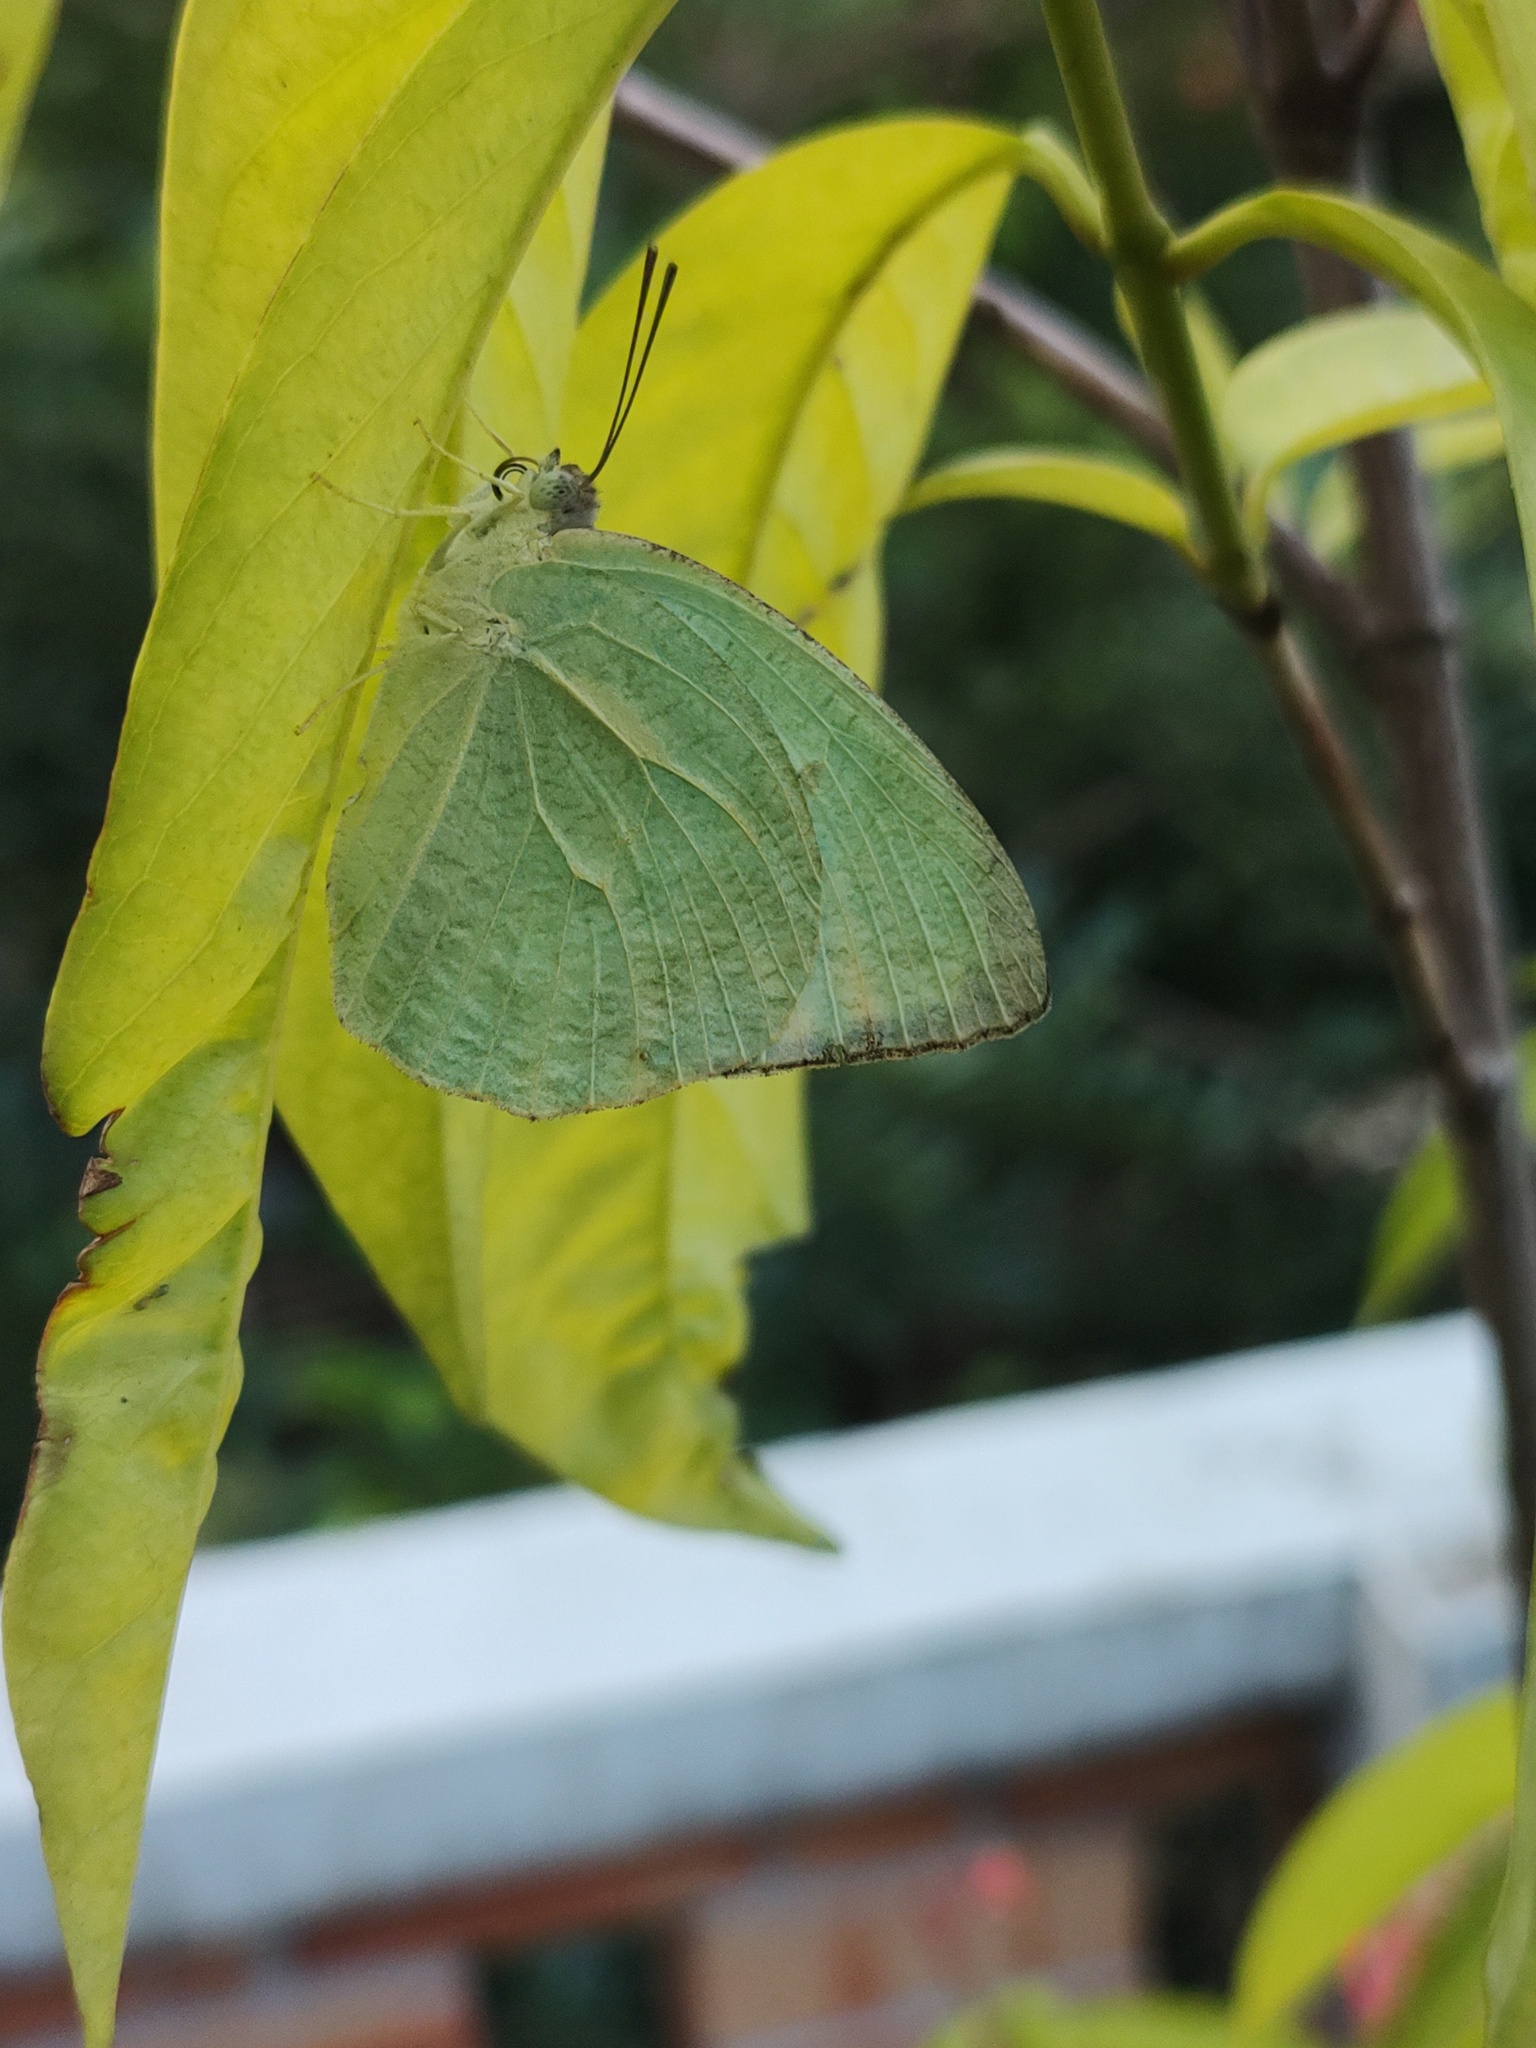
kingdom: Animalia
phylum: Arthropoda
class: Insecta
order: Lepidoptera
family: Pieridae
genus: Catopsilia
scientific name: Catopsilia pyranthe
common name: Mottled emigrant
